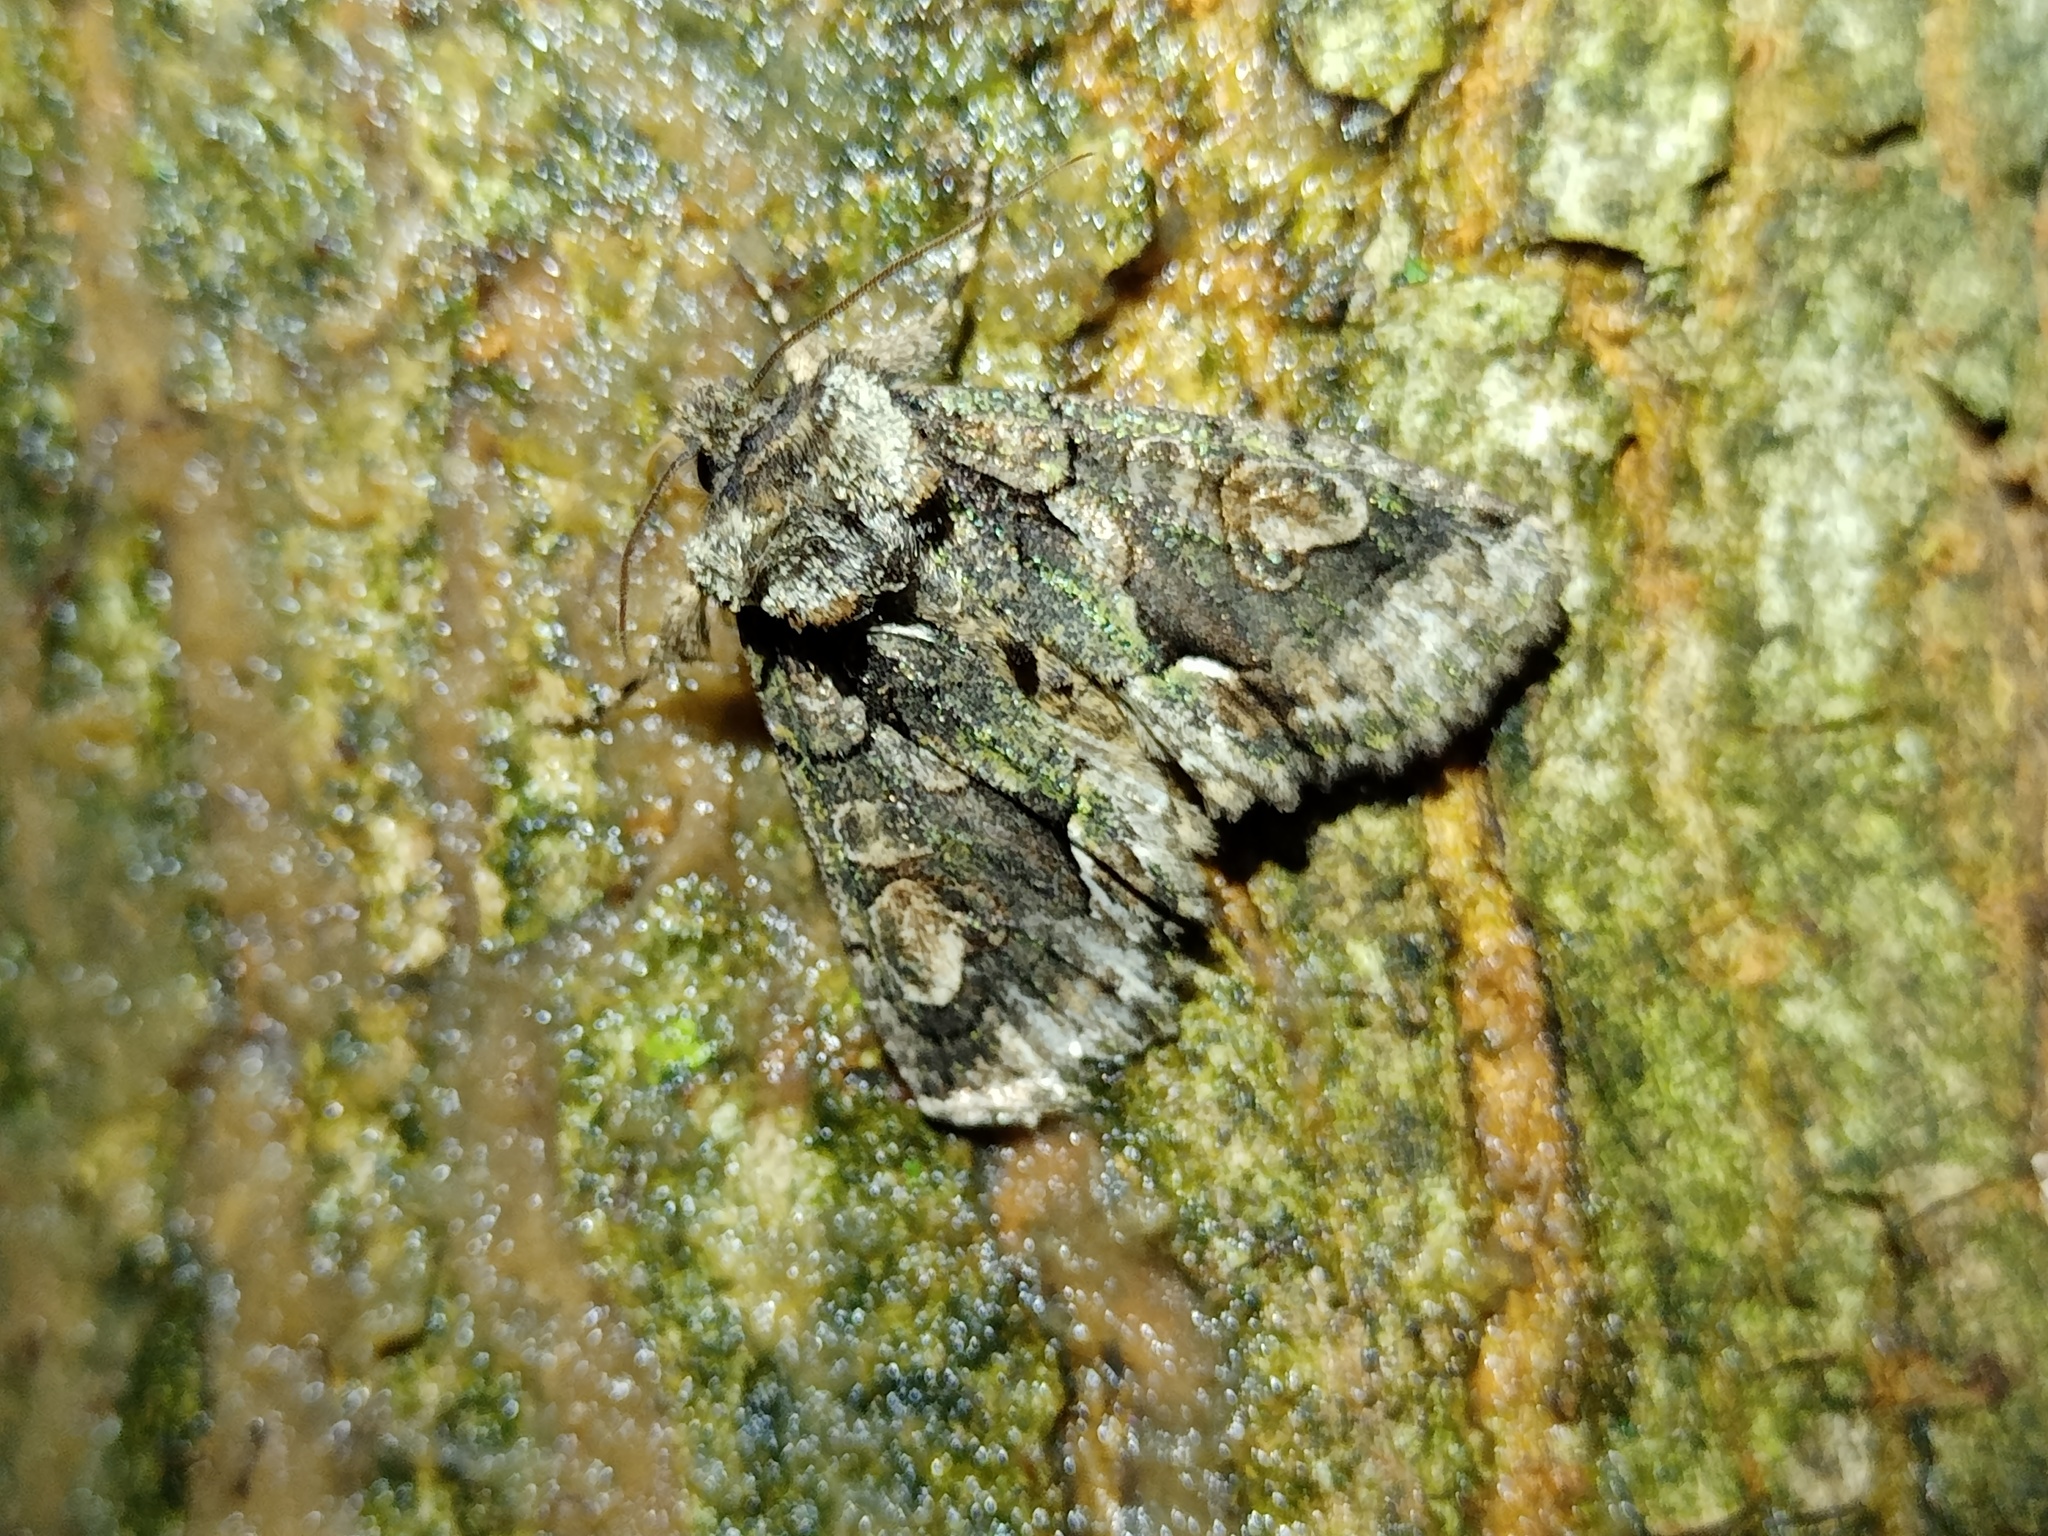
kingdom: Animalia
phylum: Arthropoda
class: Insecta
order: Lepidoptera
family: Noctuidae
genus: Allophyes
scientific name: Allophyes oxyacanthae
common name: Green-brindled crescent
